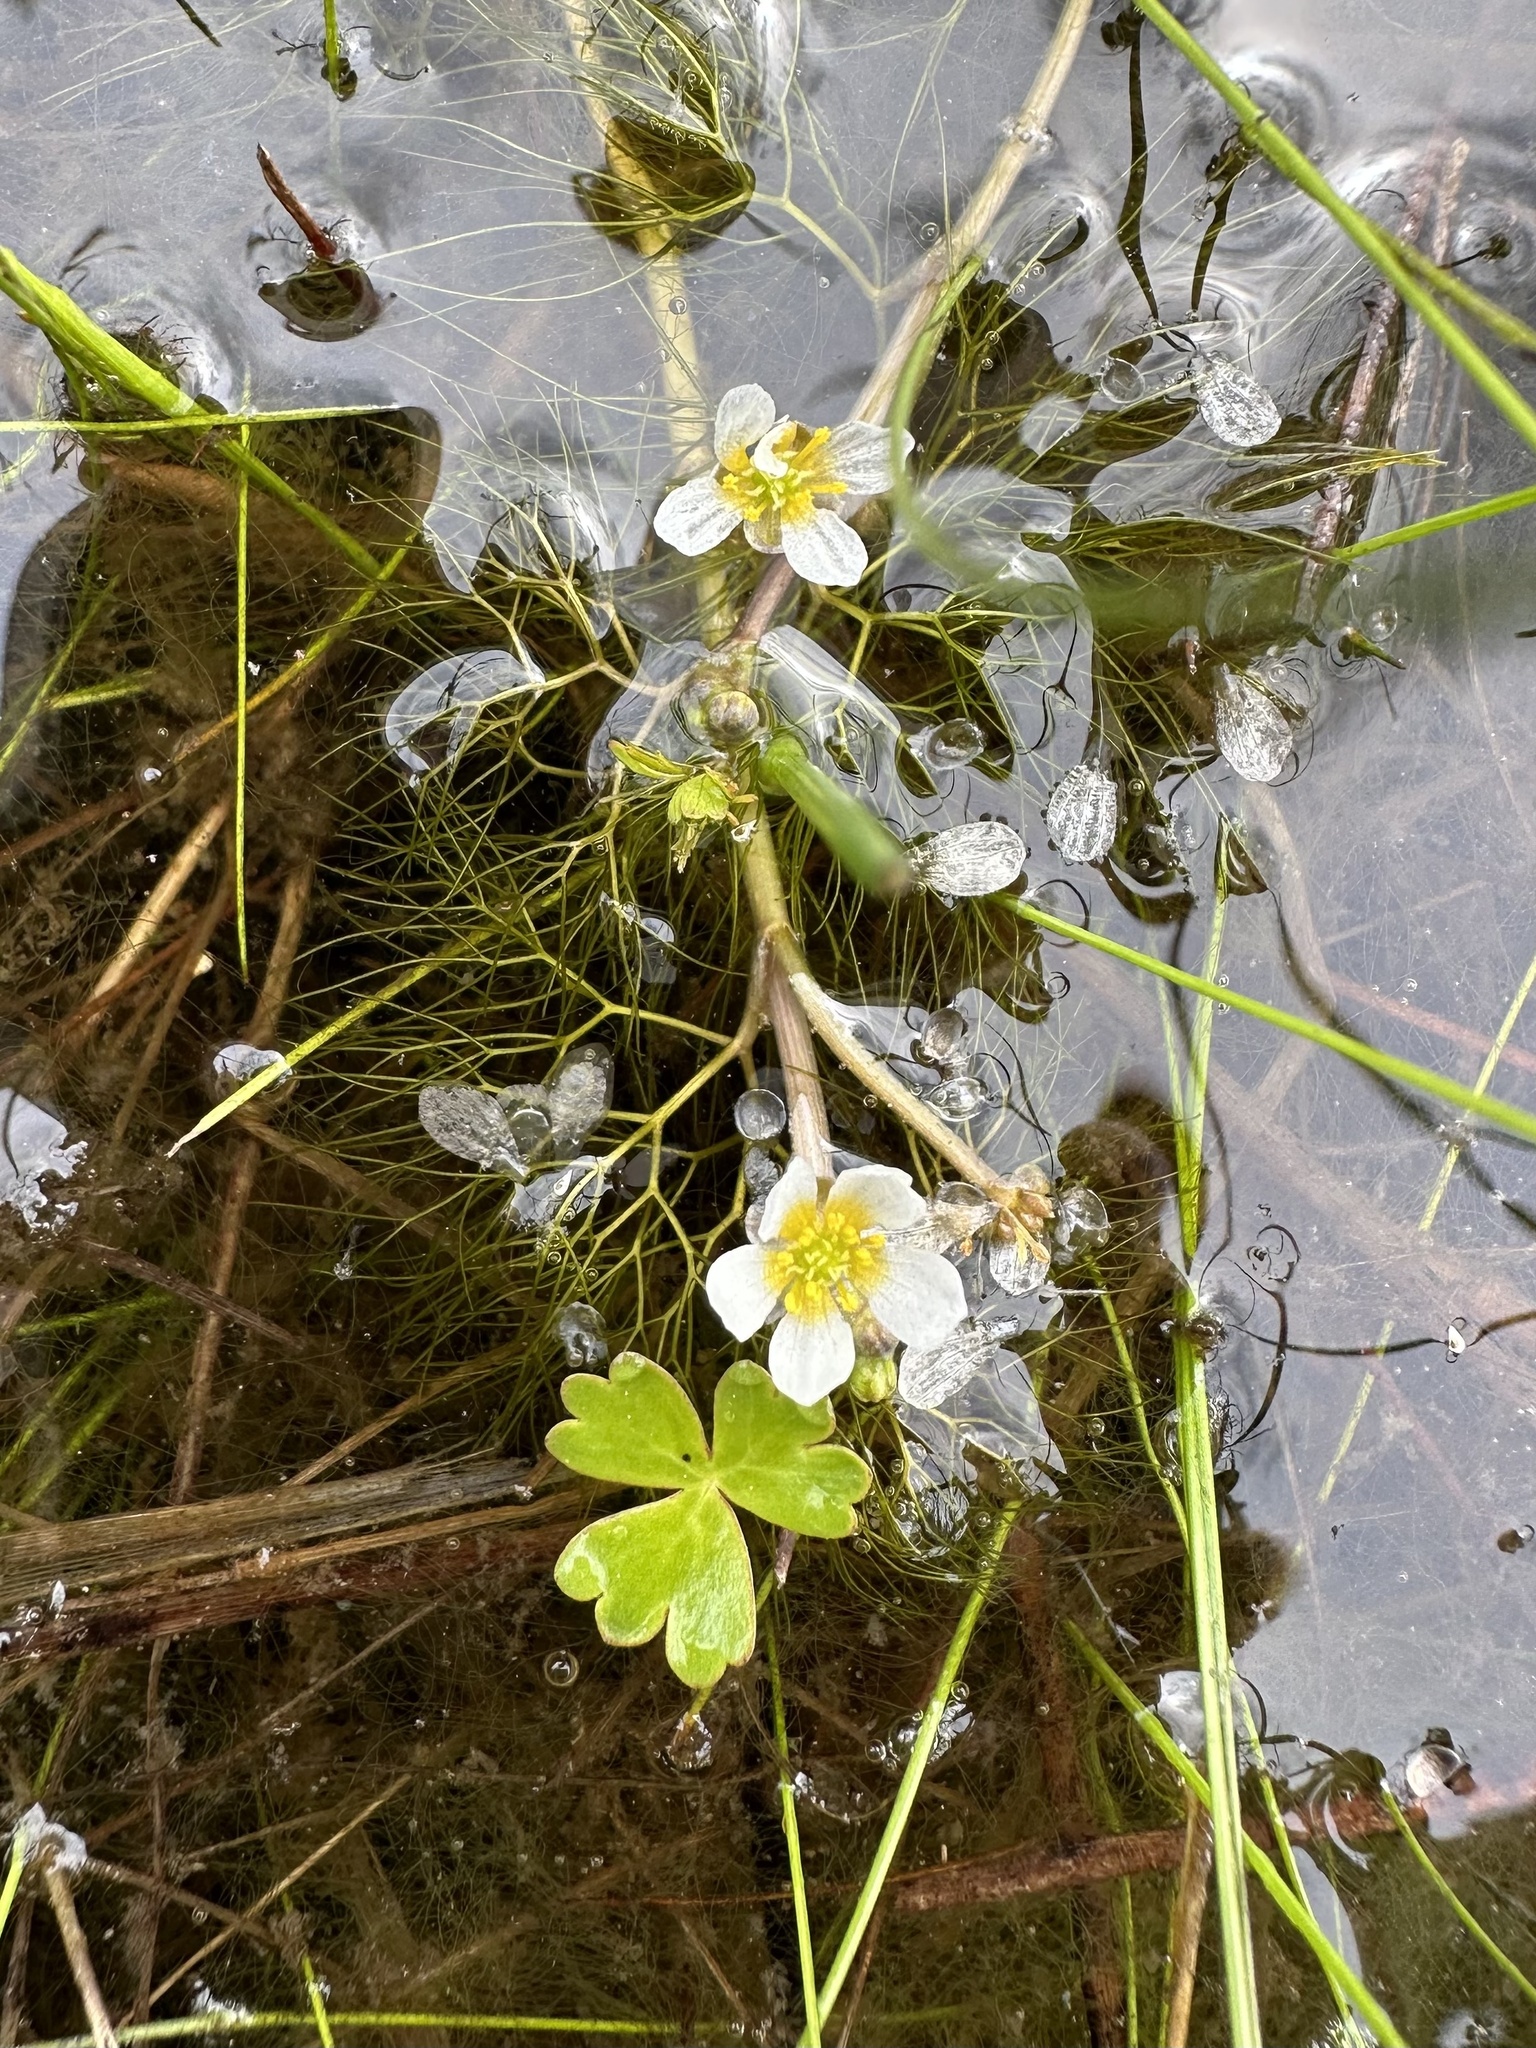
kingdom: Plantae
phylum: Tracheophyta
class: Magnoliopsida
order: Ranunculales
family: Ranunculaceae
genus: Ranunculus
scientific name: Ranunculus aquatilis
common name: Common water-crowfoot
